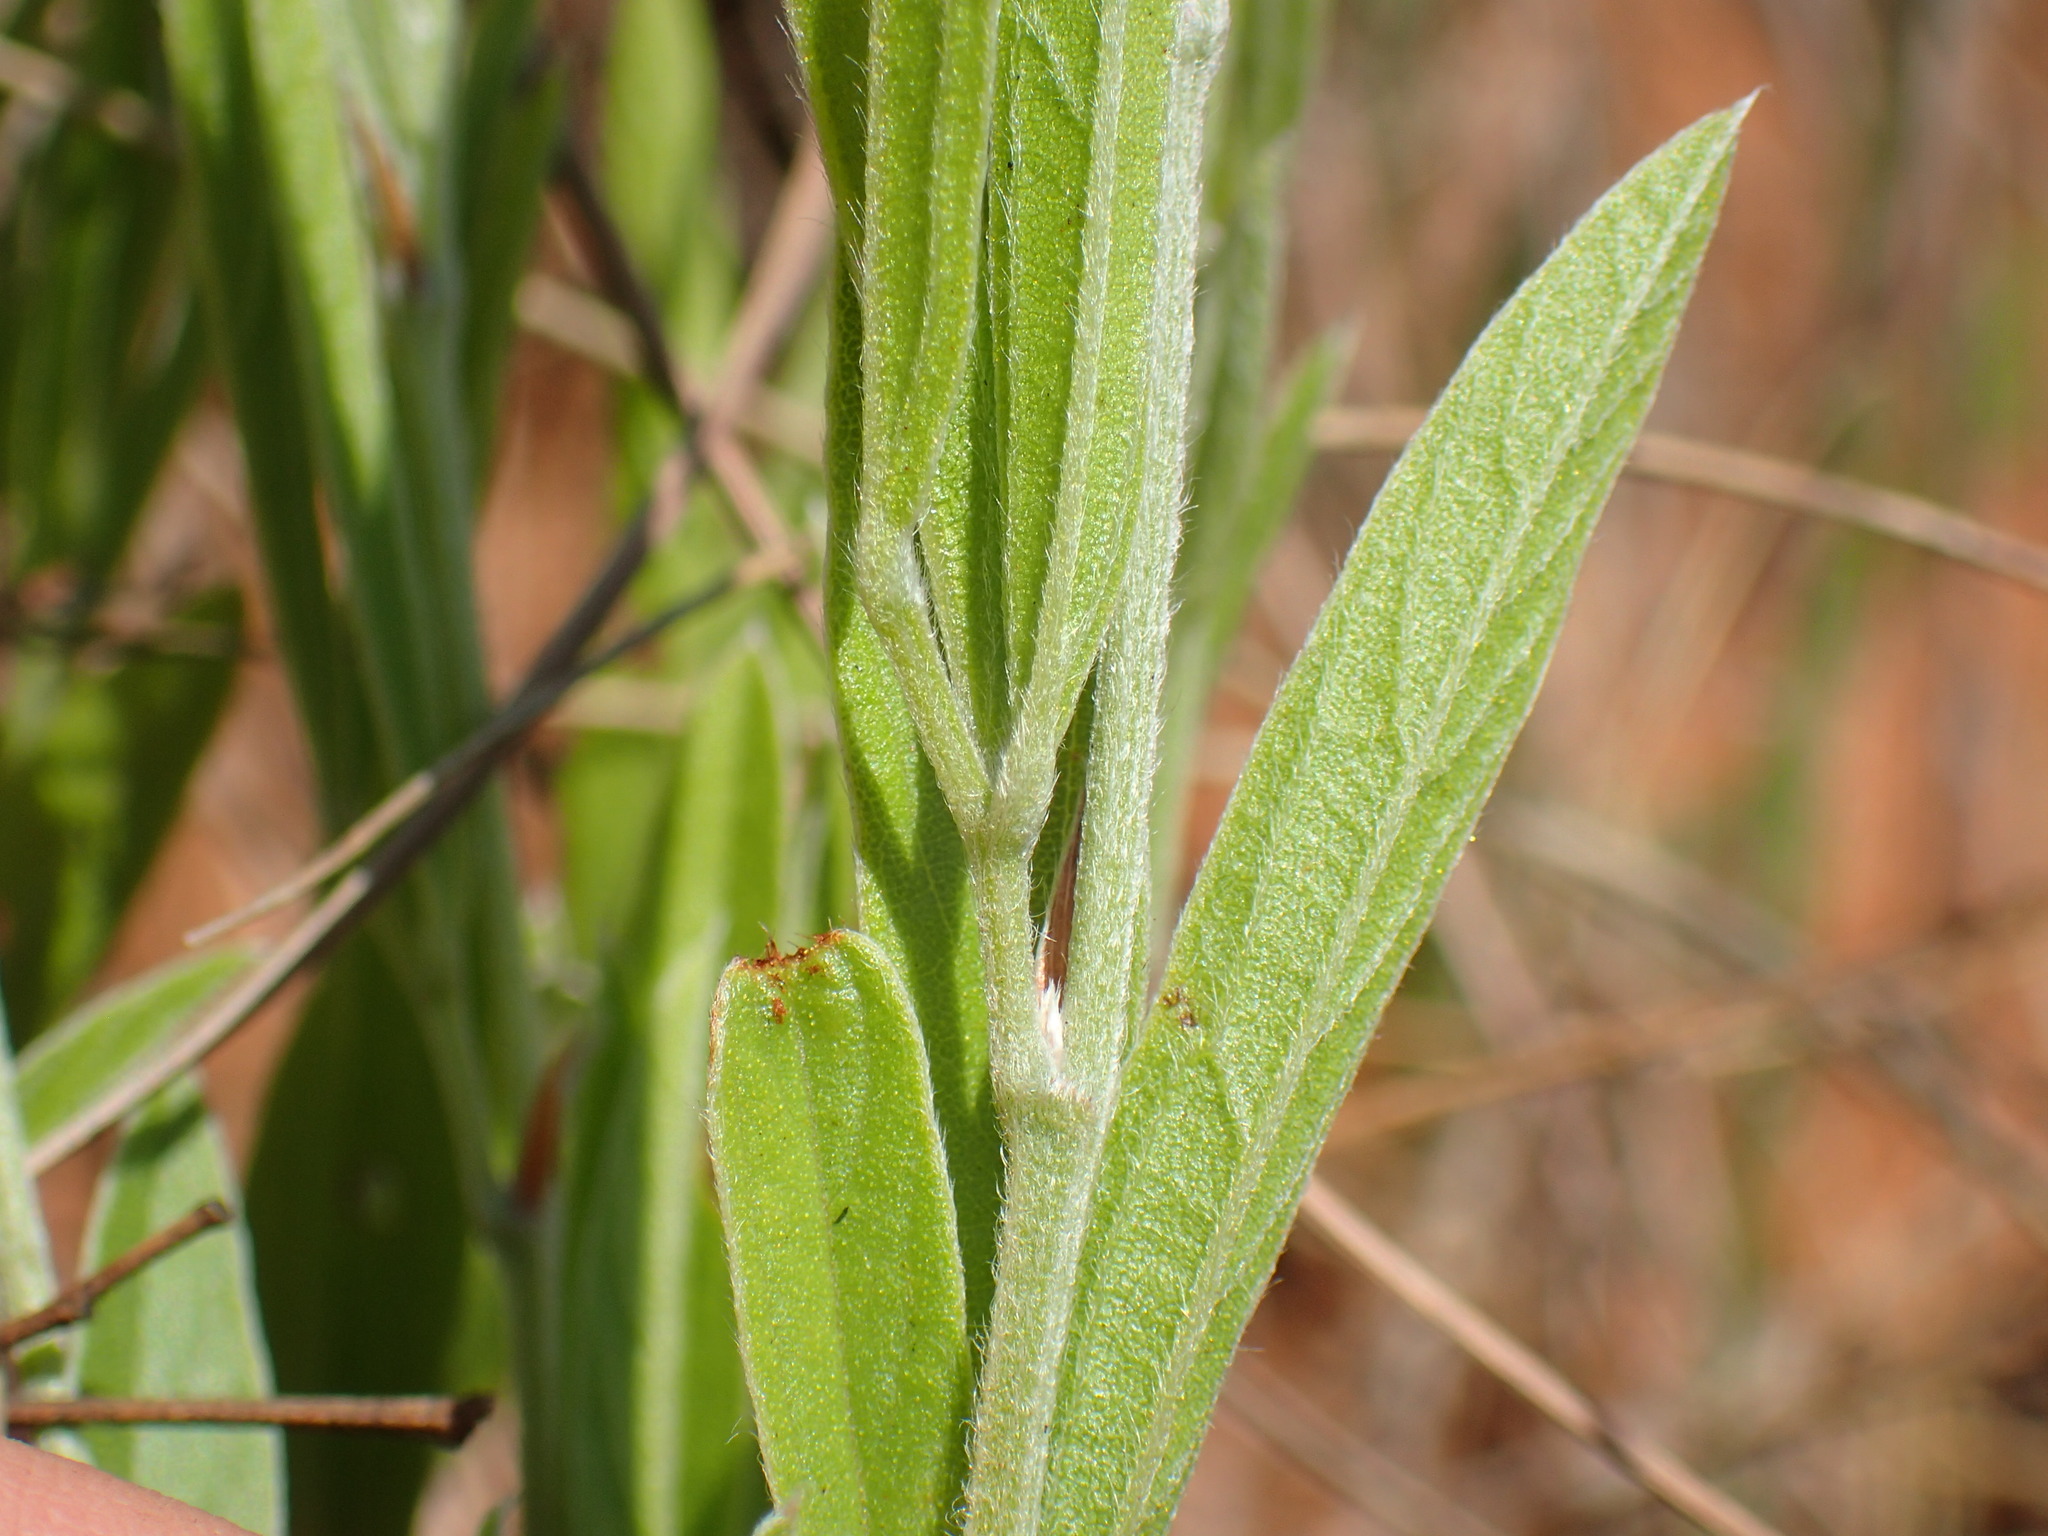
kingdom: Plantae
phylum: Tracheophyta
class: Magnoliopsida
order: Fabales
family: Fabaceae
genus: Eriosema
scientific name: Eriosema kraussianum
